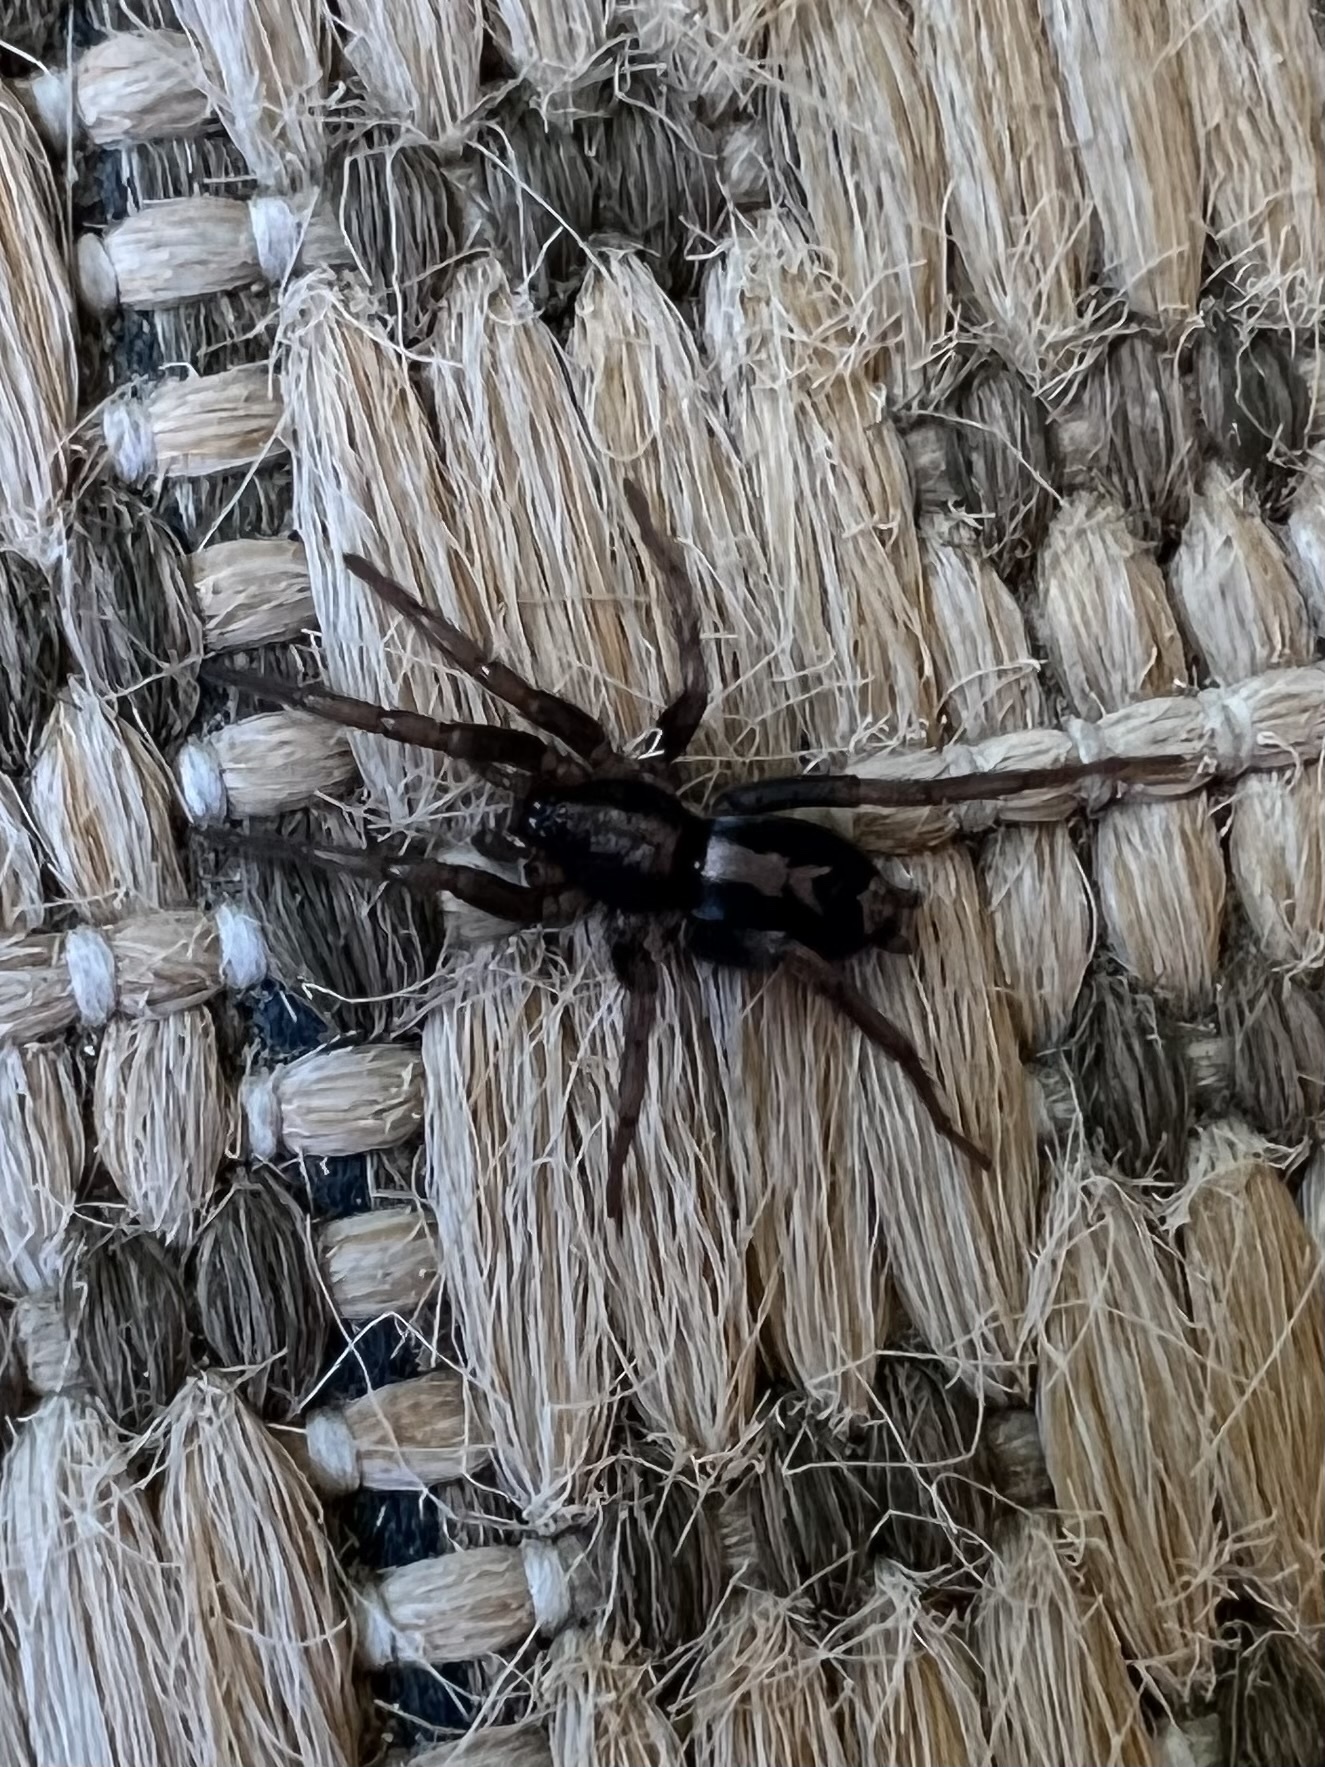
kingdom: Animalia
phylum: Arthropoda
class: Arachnida
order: Araneae
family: Gnaphosidae
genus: Herpyllus
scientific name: Herpyllus ecclesiasticus
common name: Eastern parson spider
